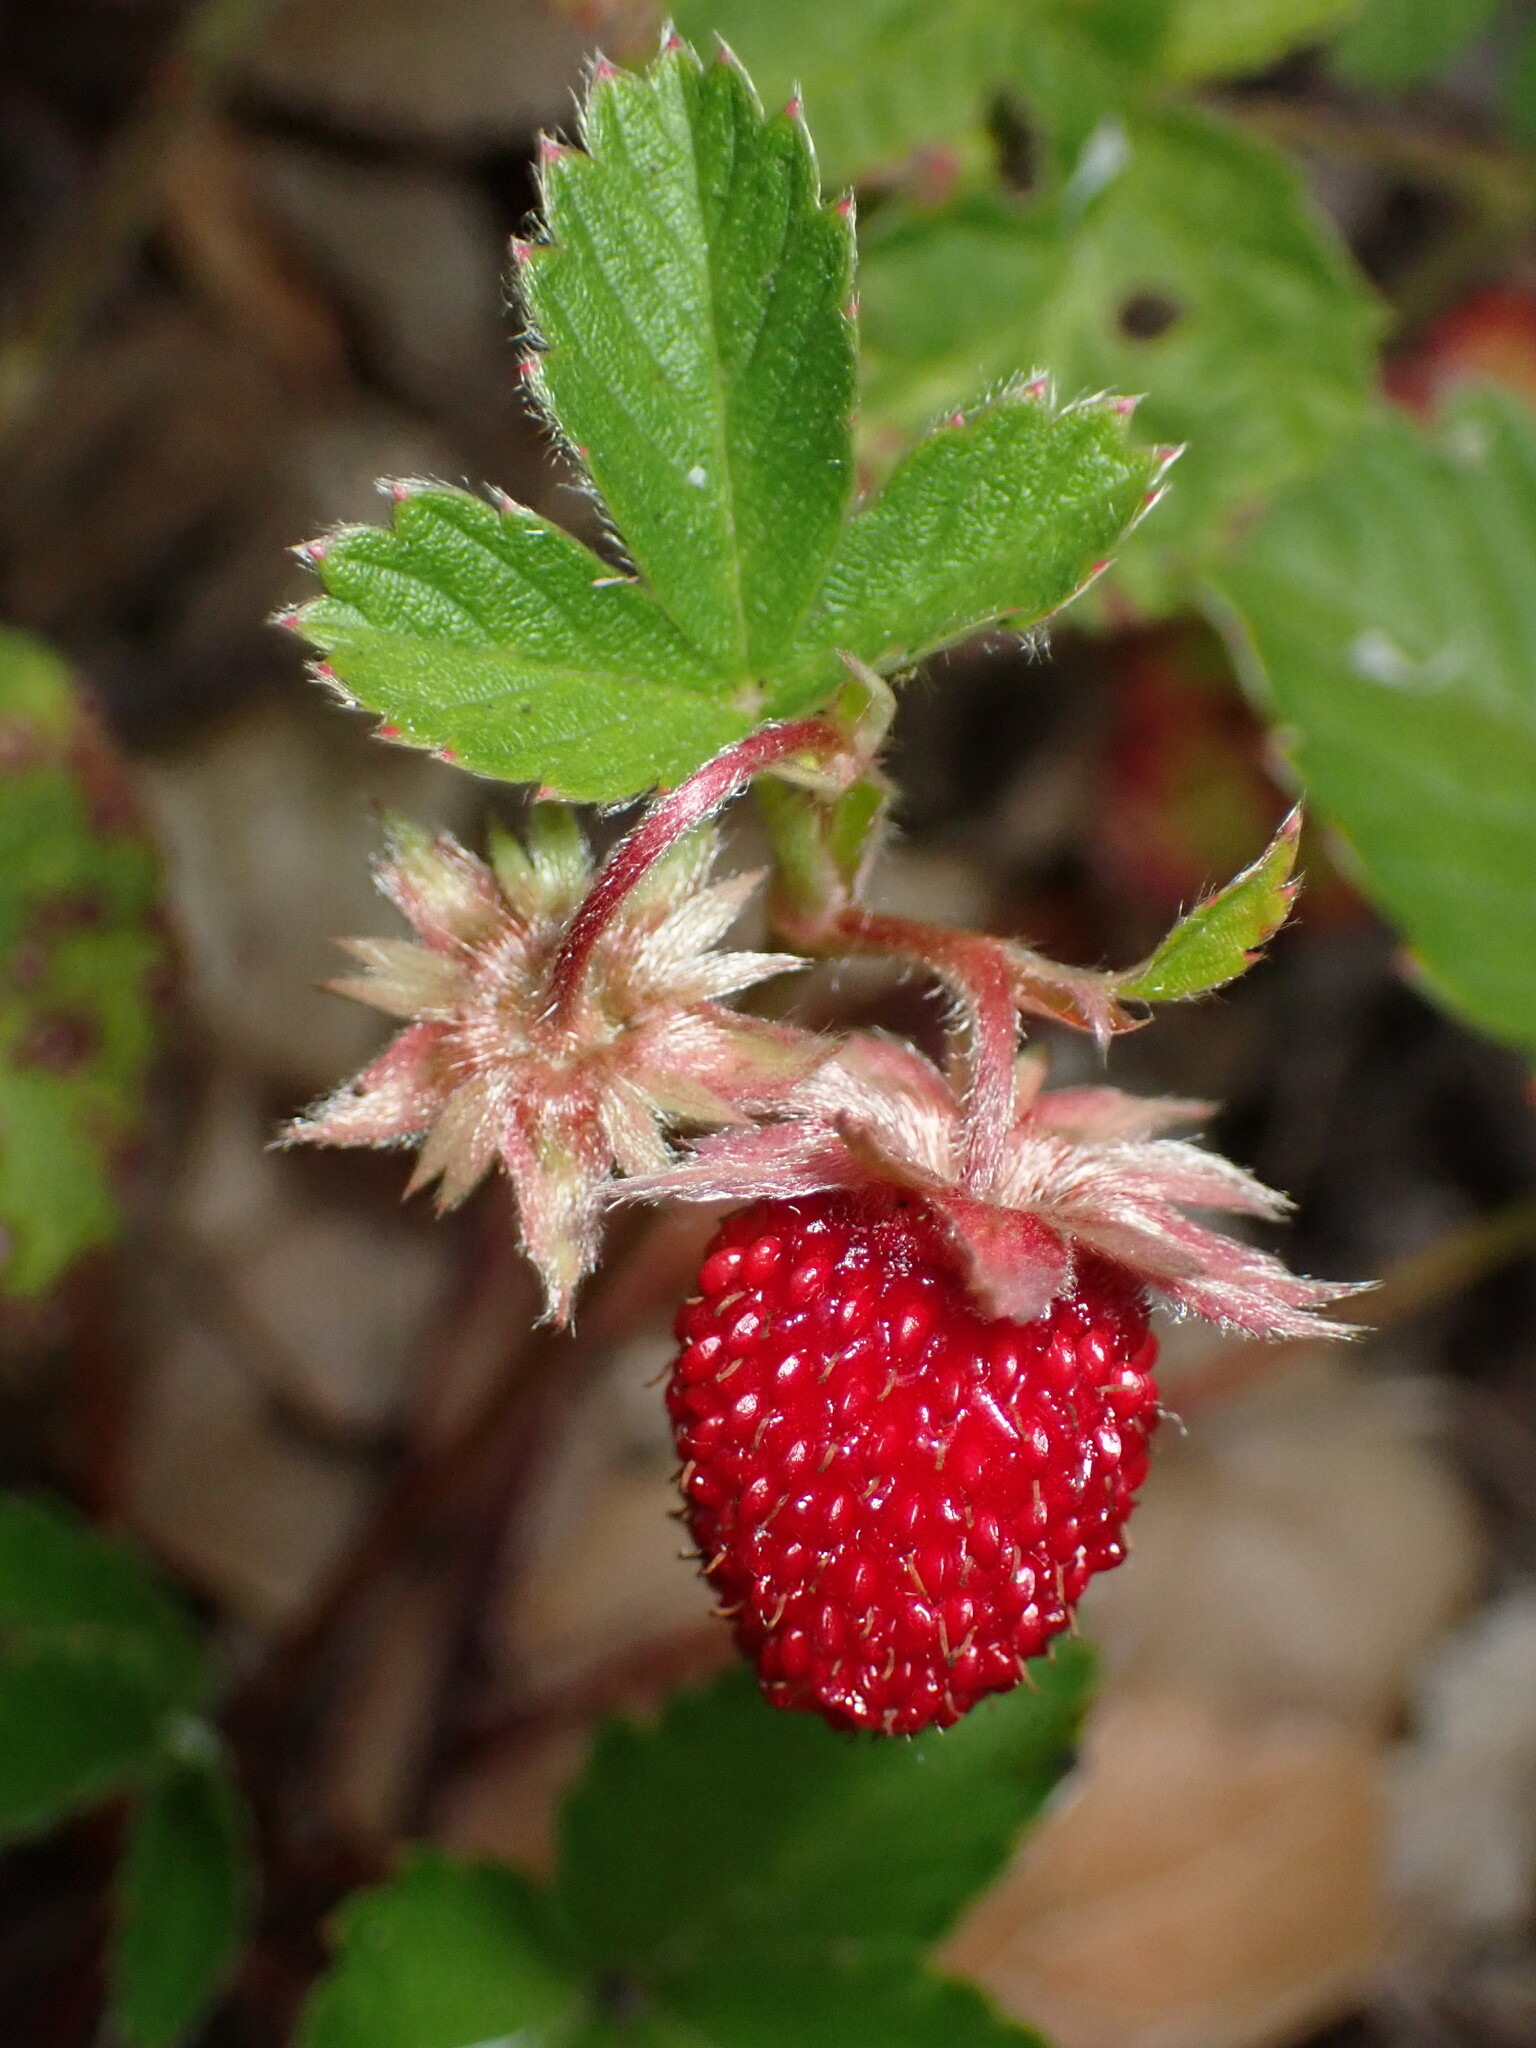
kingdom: Plantae
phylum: Tracheophyta
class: Magnoliopsida
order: Rosales
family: Rosaceae
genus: Fragaria
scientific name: Fragaria vesca
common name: Wild strawberry
